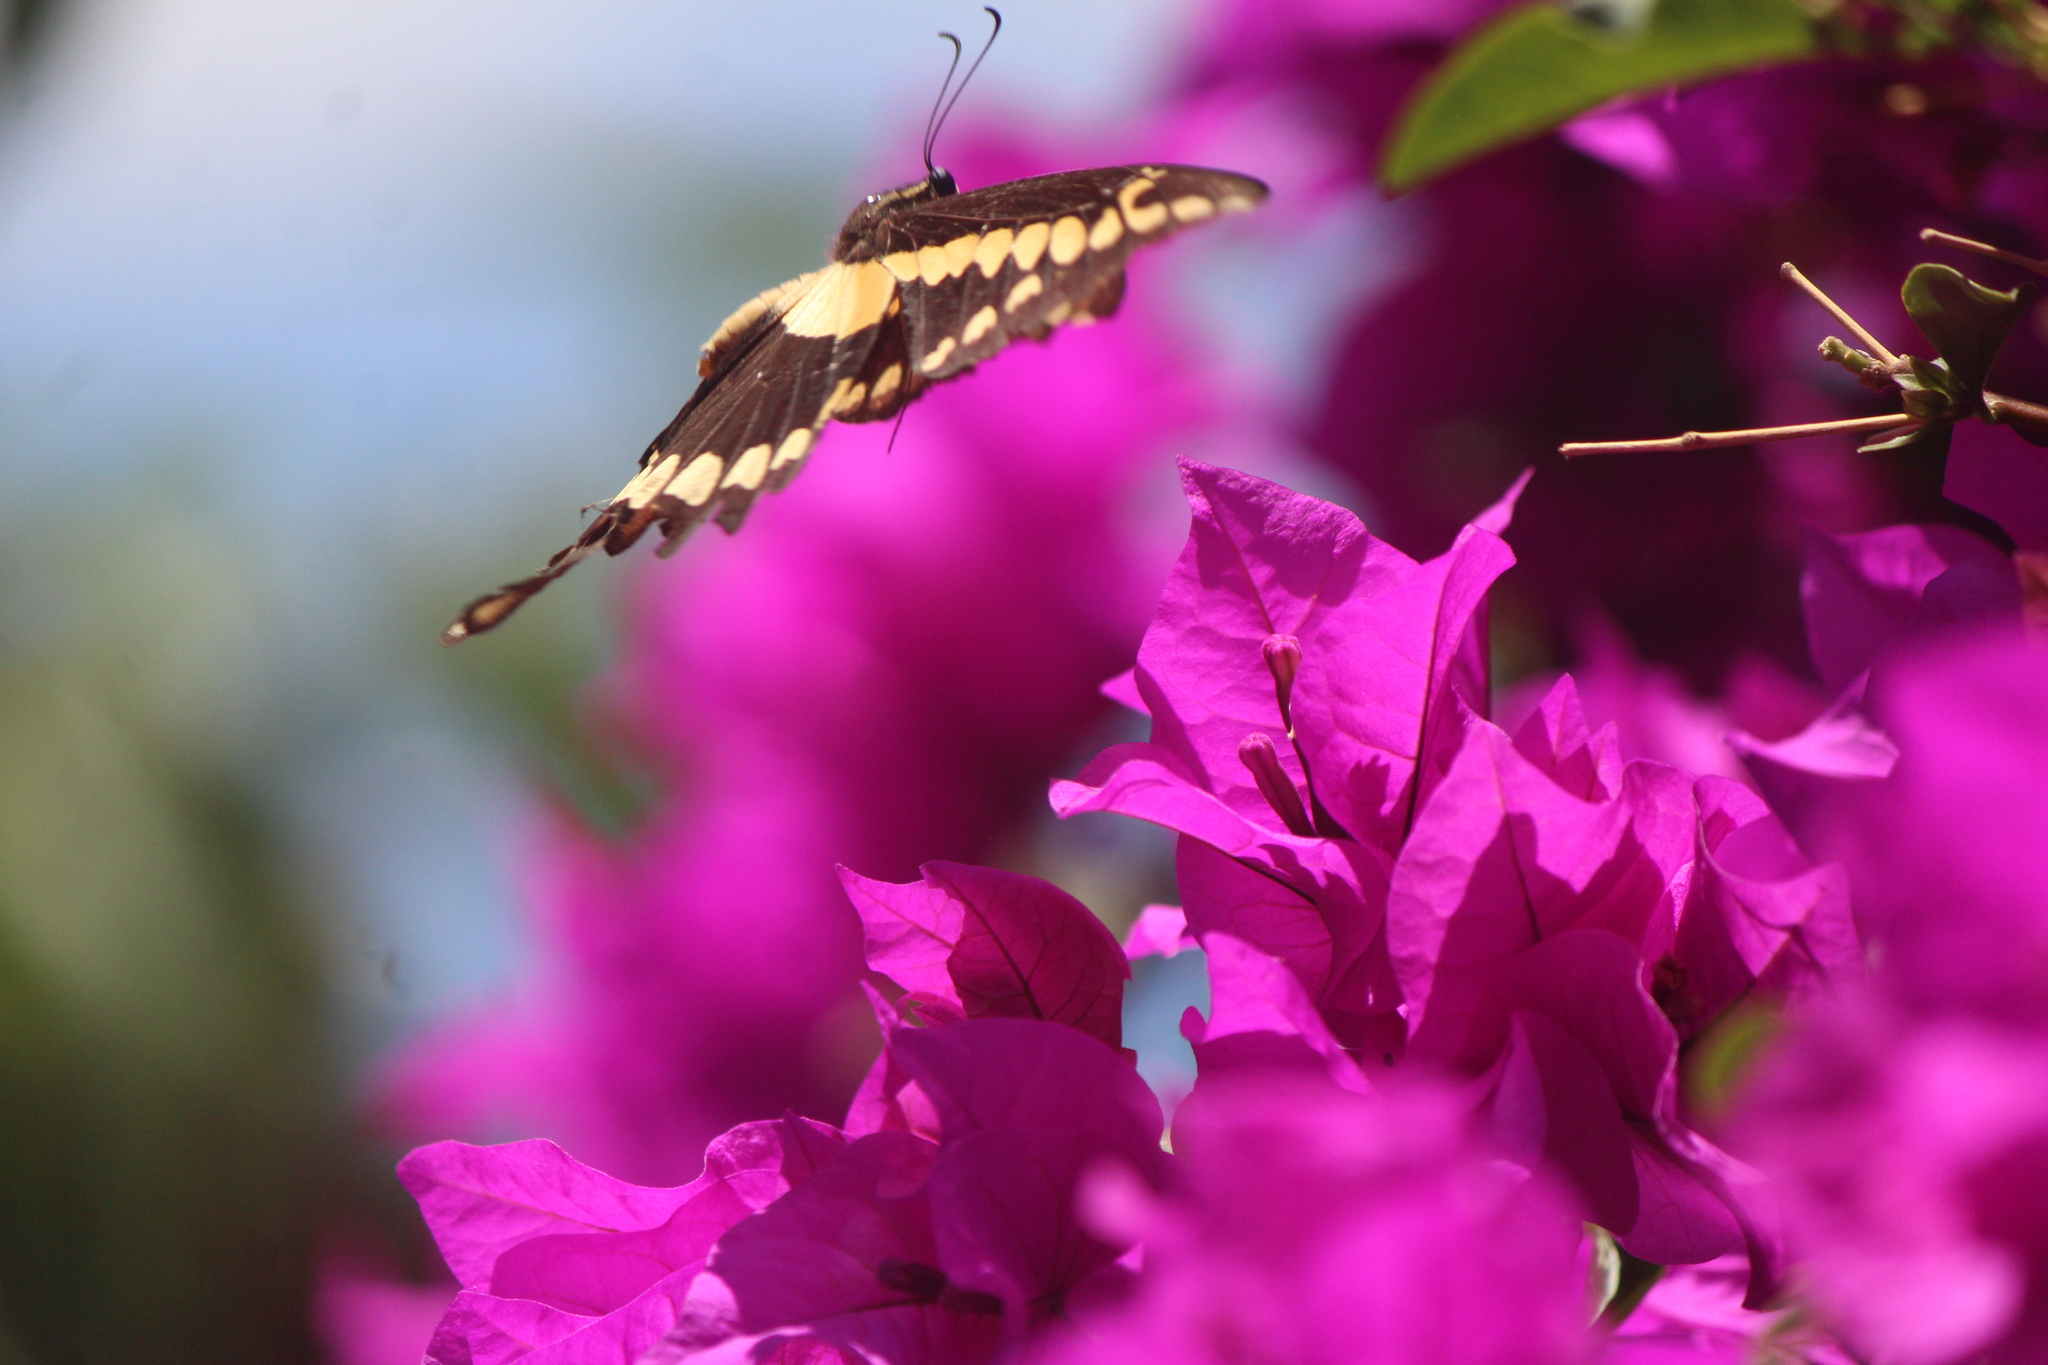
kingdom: Animalia
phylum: Arthropoda
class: Insecta
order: Lepidoptera
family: Papilionidae
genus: Papilio
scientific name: Papilio rumiko
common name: Western giant swallowtail
